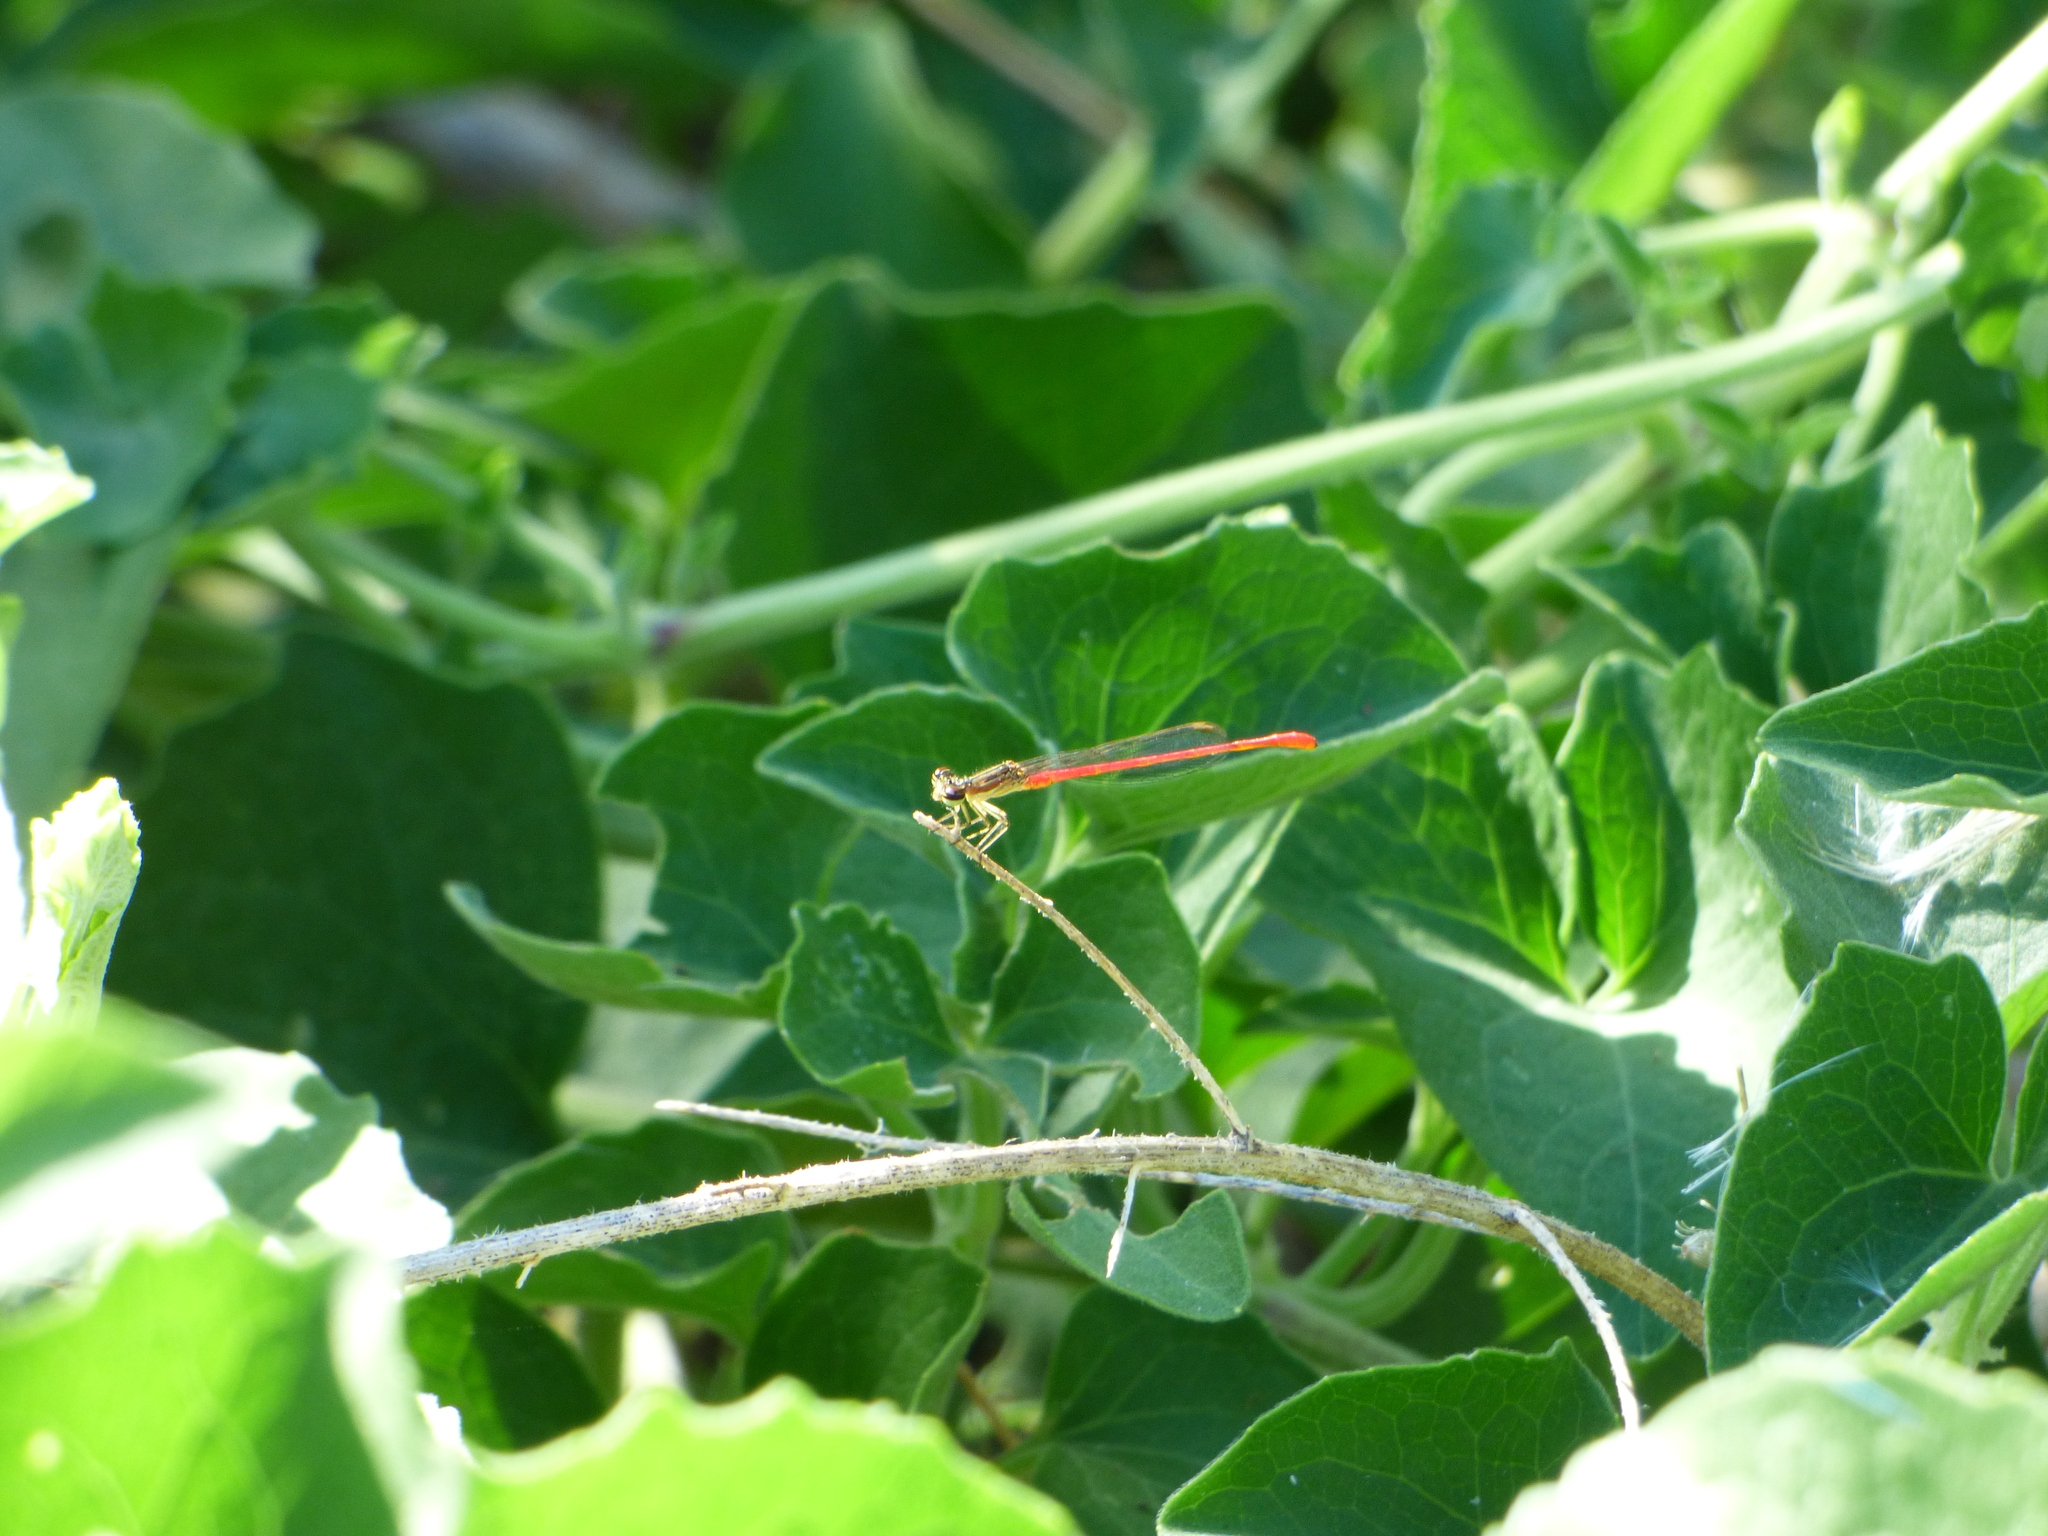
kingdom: Animalia
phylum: Arthropoda
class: Insecta
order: Odonata
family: Coenagrionidae
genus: Telebasis
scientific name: Telebasis willinki
